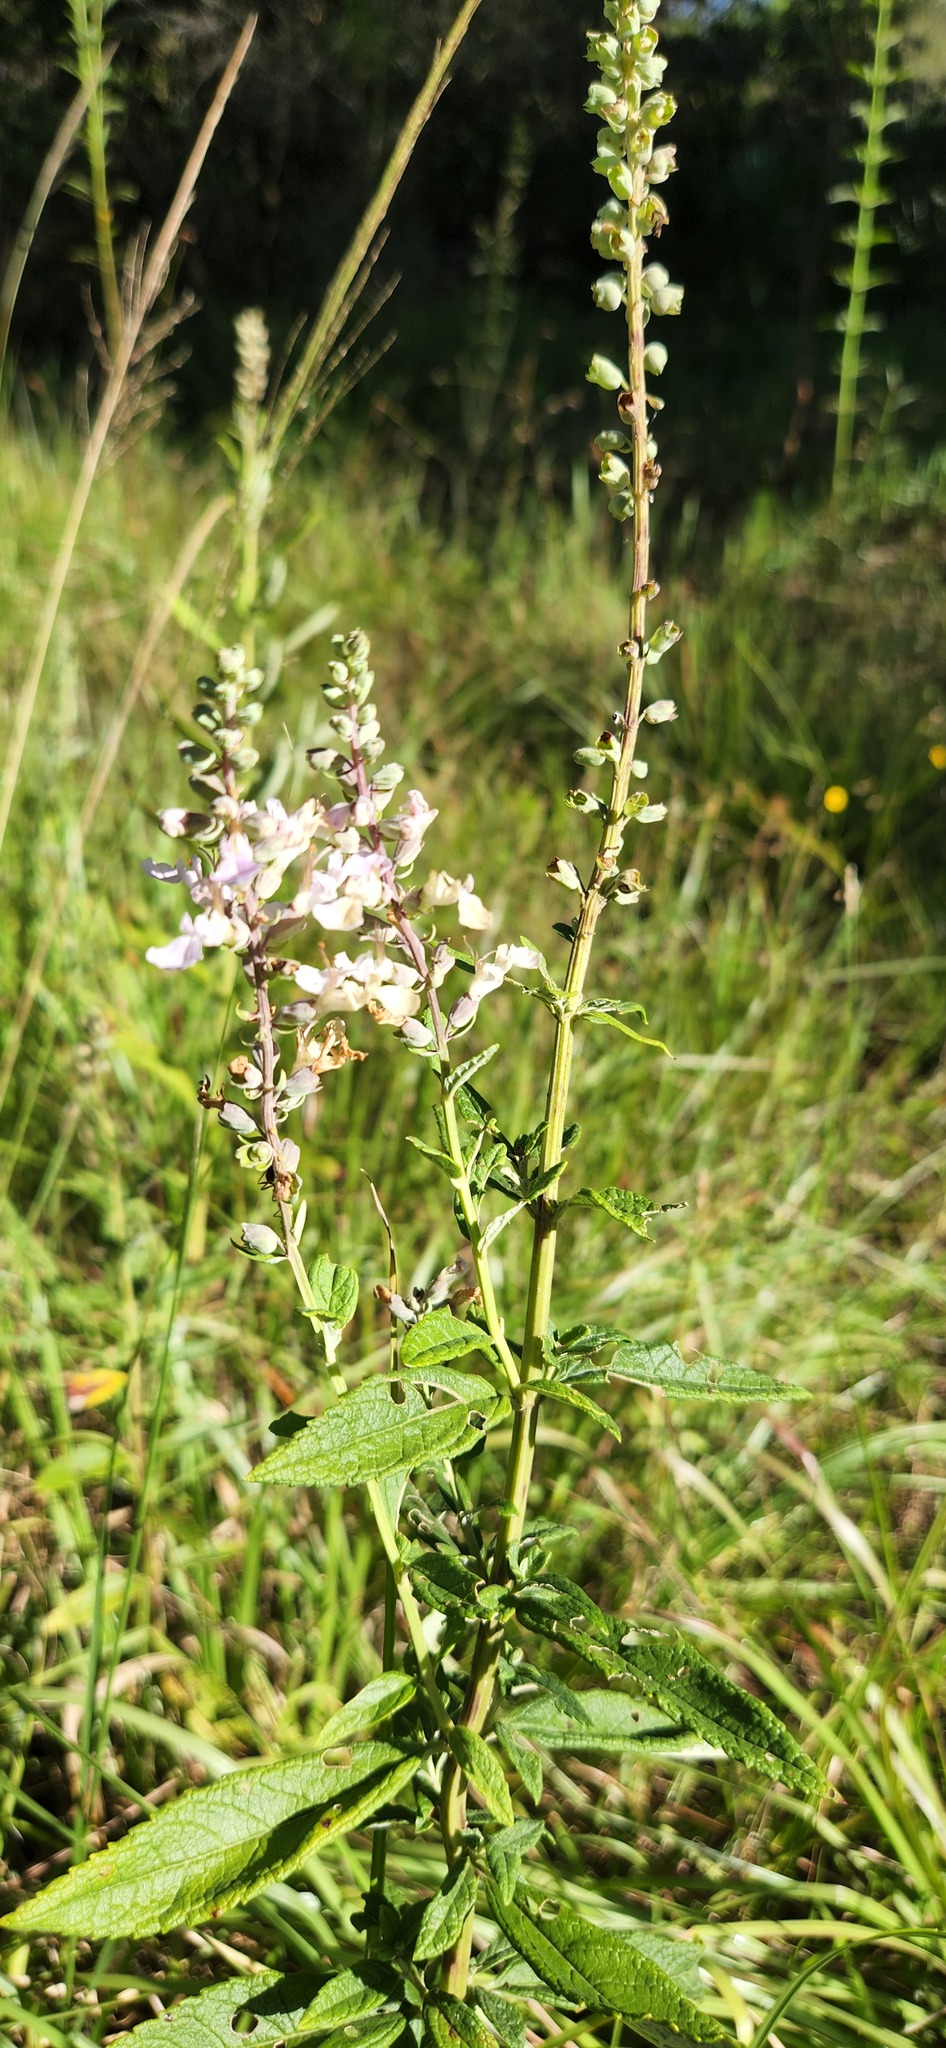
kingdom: Plantae
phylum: Tracheophyta
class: Magnoliopsida
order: Lamiales
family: Lamiaceae
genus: Teucrium
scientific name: Teucrium canadense
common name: American germander
